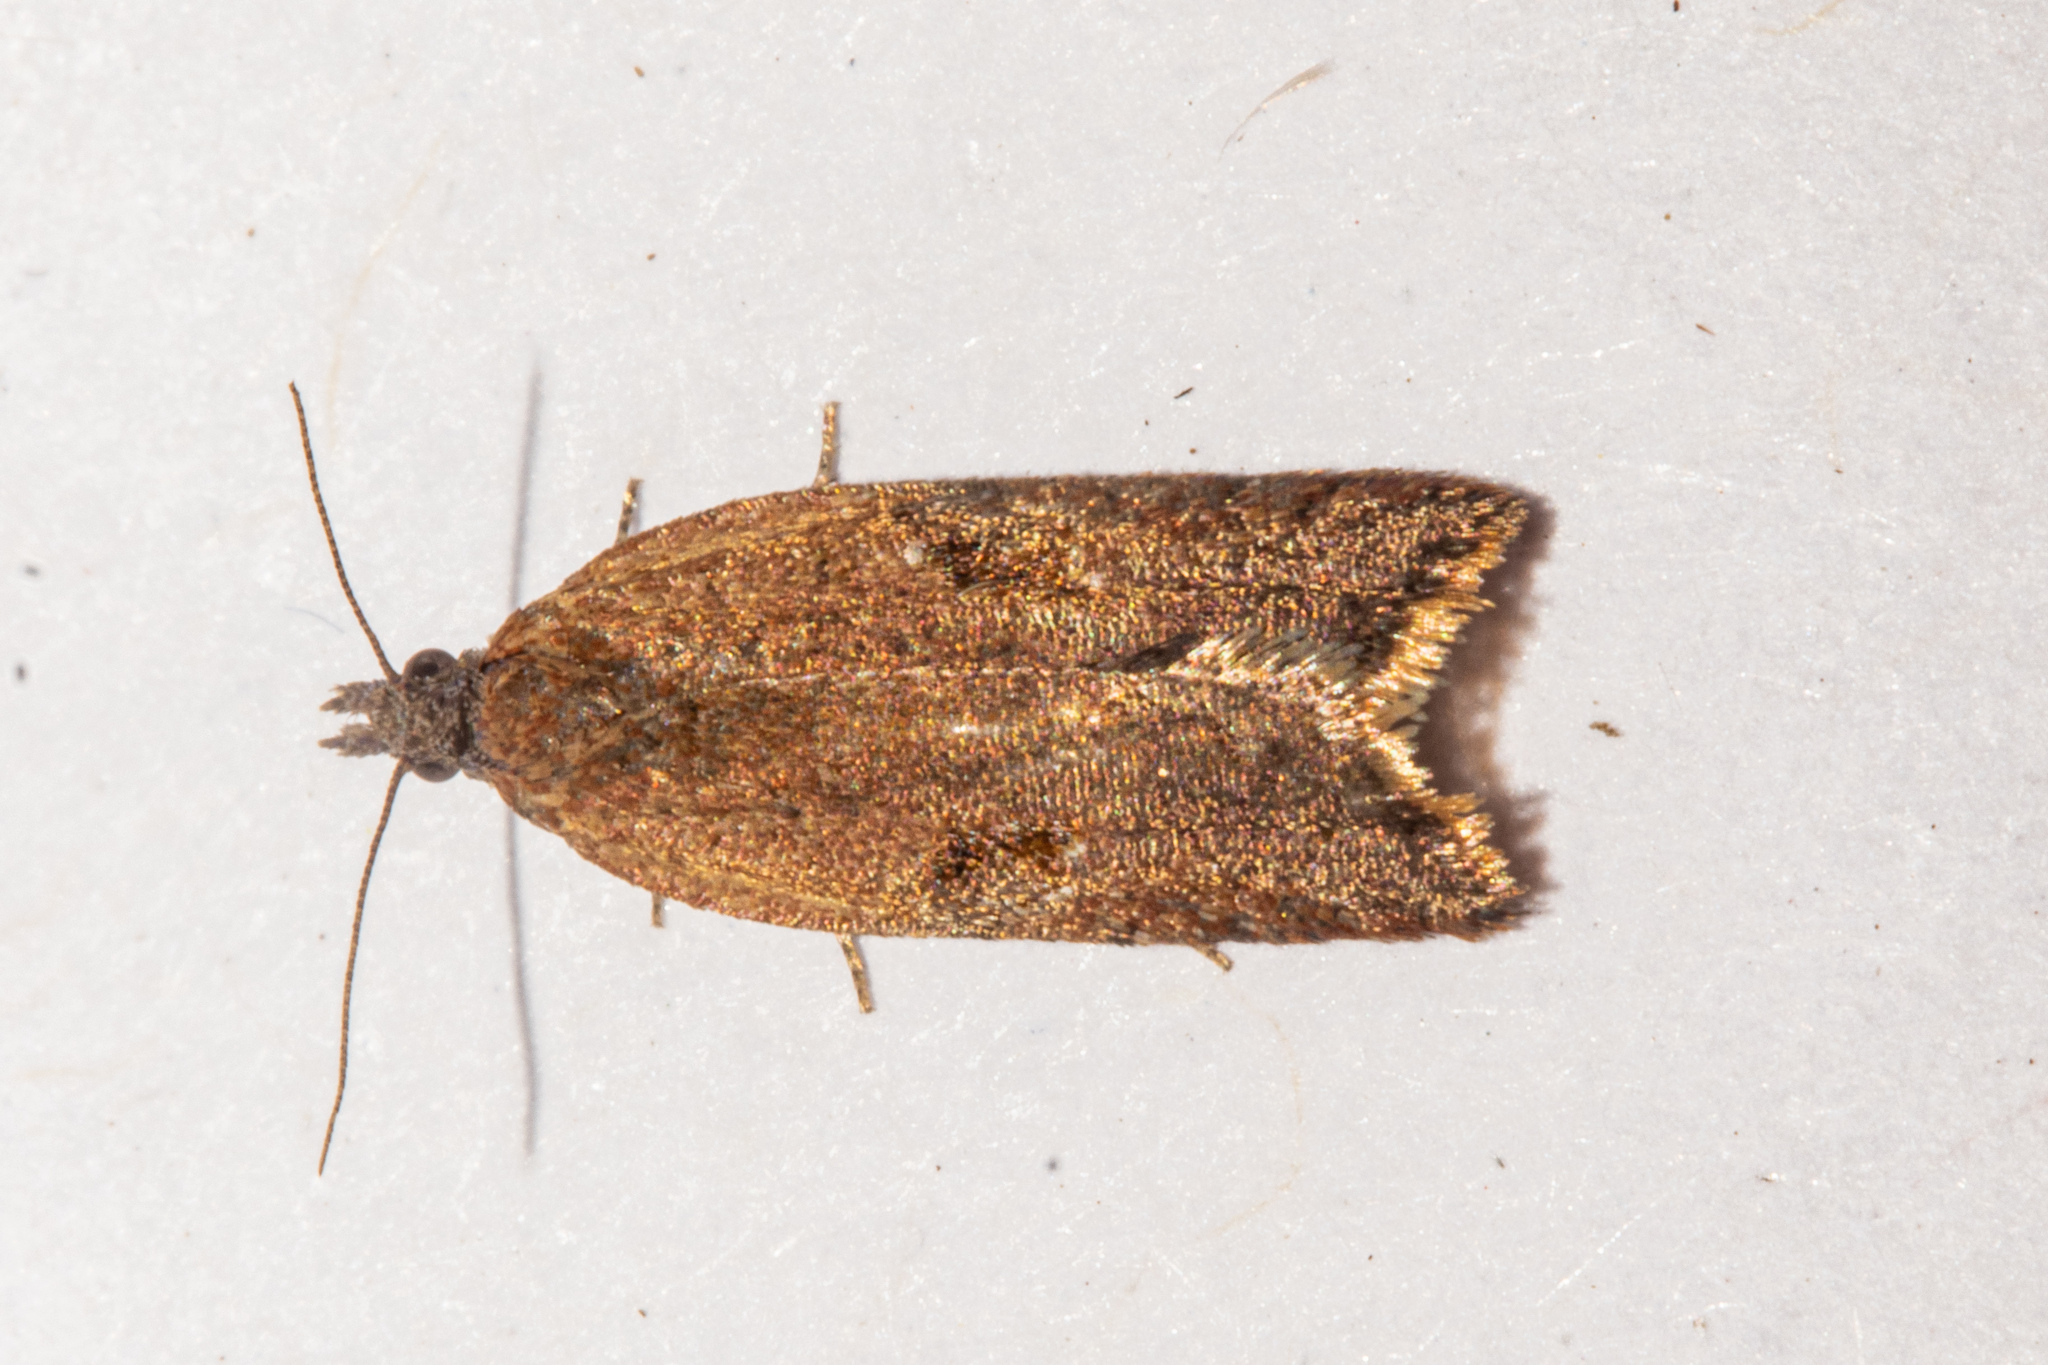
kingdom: Animalia
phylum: Arthropoda
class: Insecta
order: Lepidoptera
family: Tortricidae
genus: Capua
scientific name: Capua semiferana
